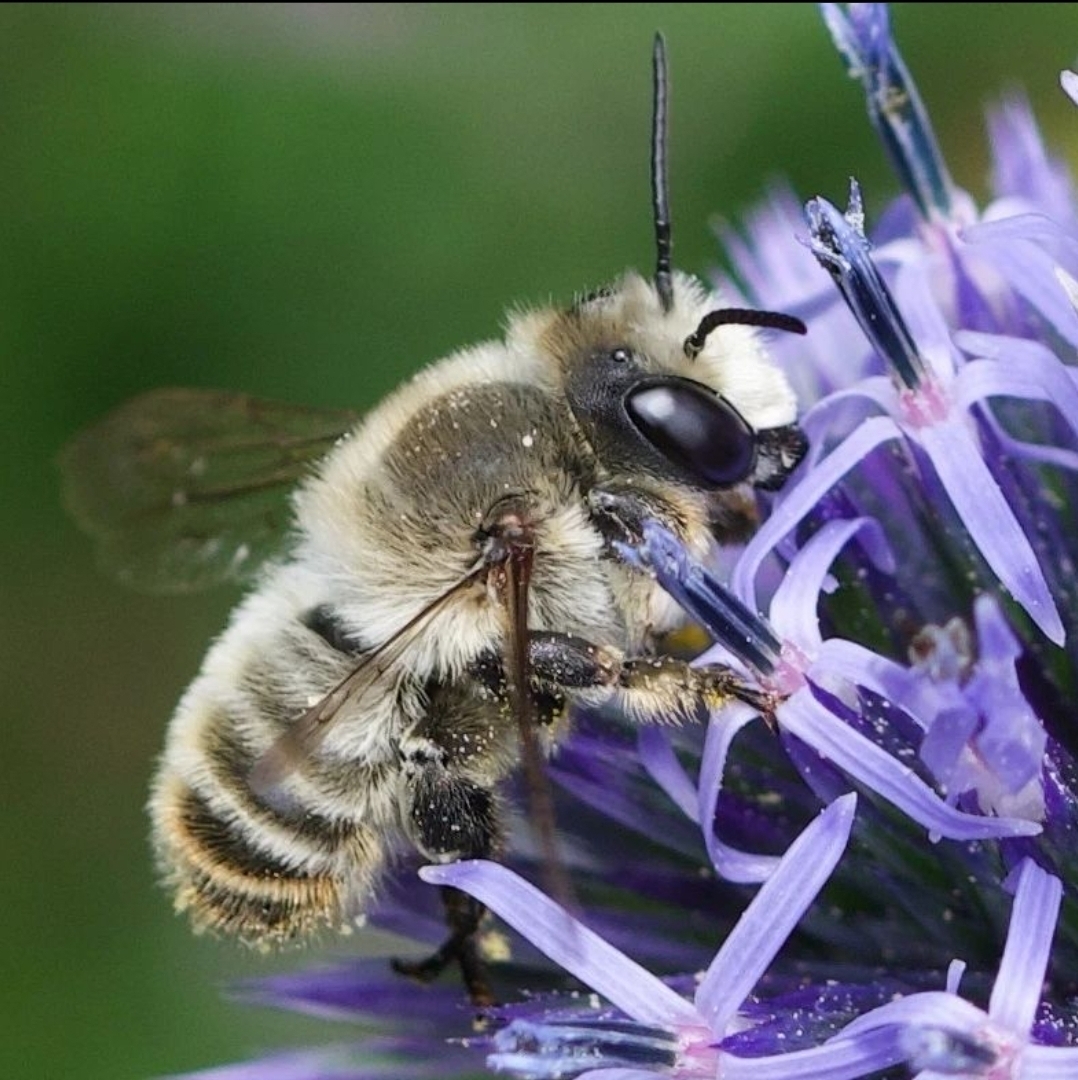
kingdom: Animalia
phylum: Arthropoda
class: Insecta
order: Hymenoptera
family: Megachilidae
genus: Megachile
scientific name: Megachile lagopoda
